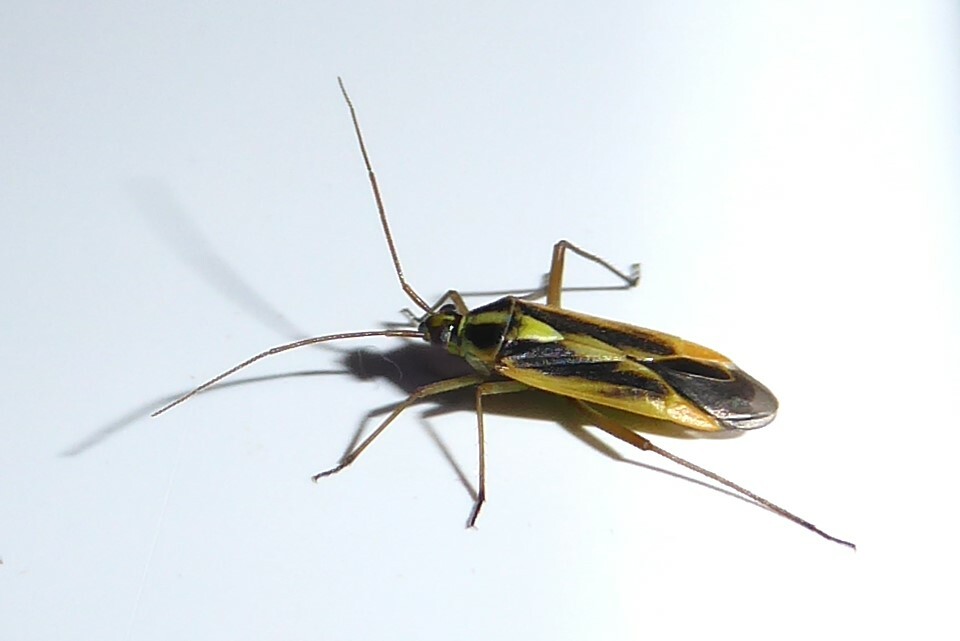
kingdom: Animalia
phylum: Arthropoda
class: Insecta
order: Hemiptera
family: Miridae
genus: Stenotus
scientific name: Stenotus binotatus
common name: Plant bug
